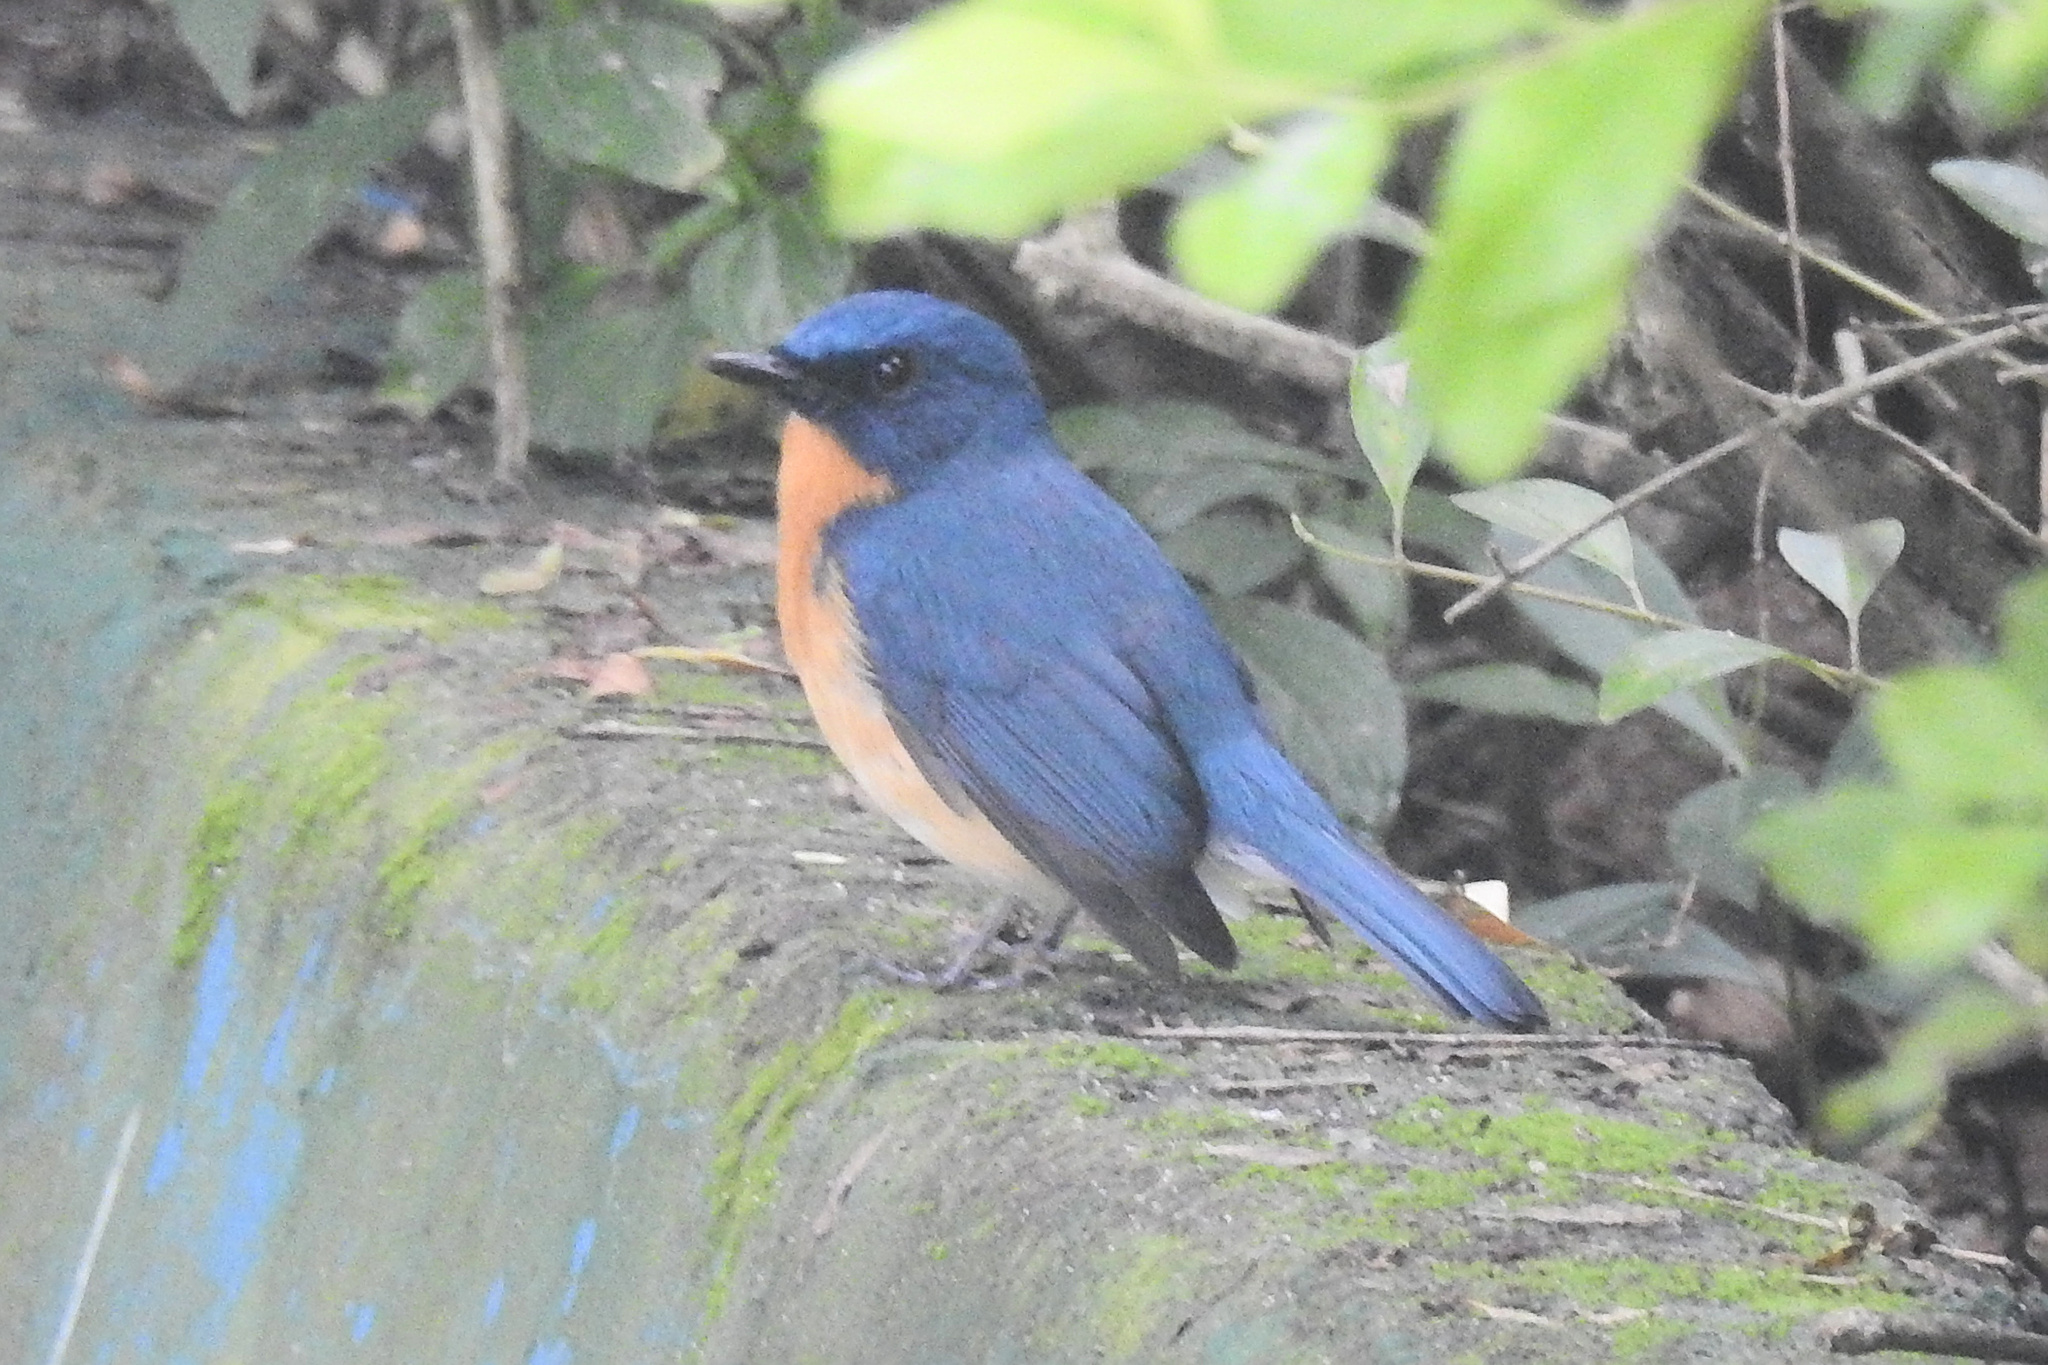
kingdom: Animalia
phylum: Chordata
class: Aves
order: Passeriformes
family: Muscicapidae
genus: Cyornis
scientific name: Cyornis tickelliae
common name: Tickell's blue flycatcher
